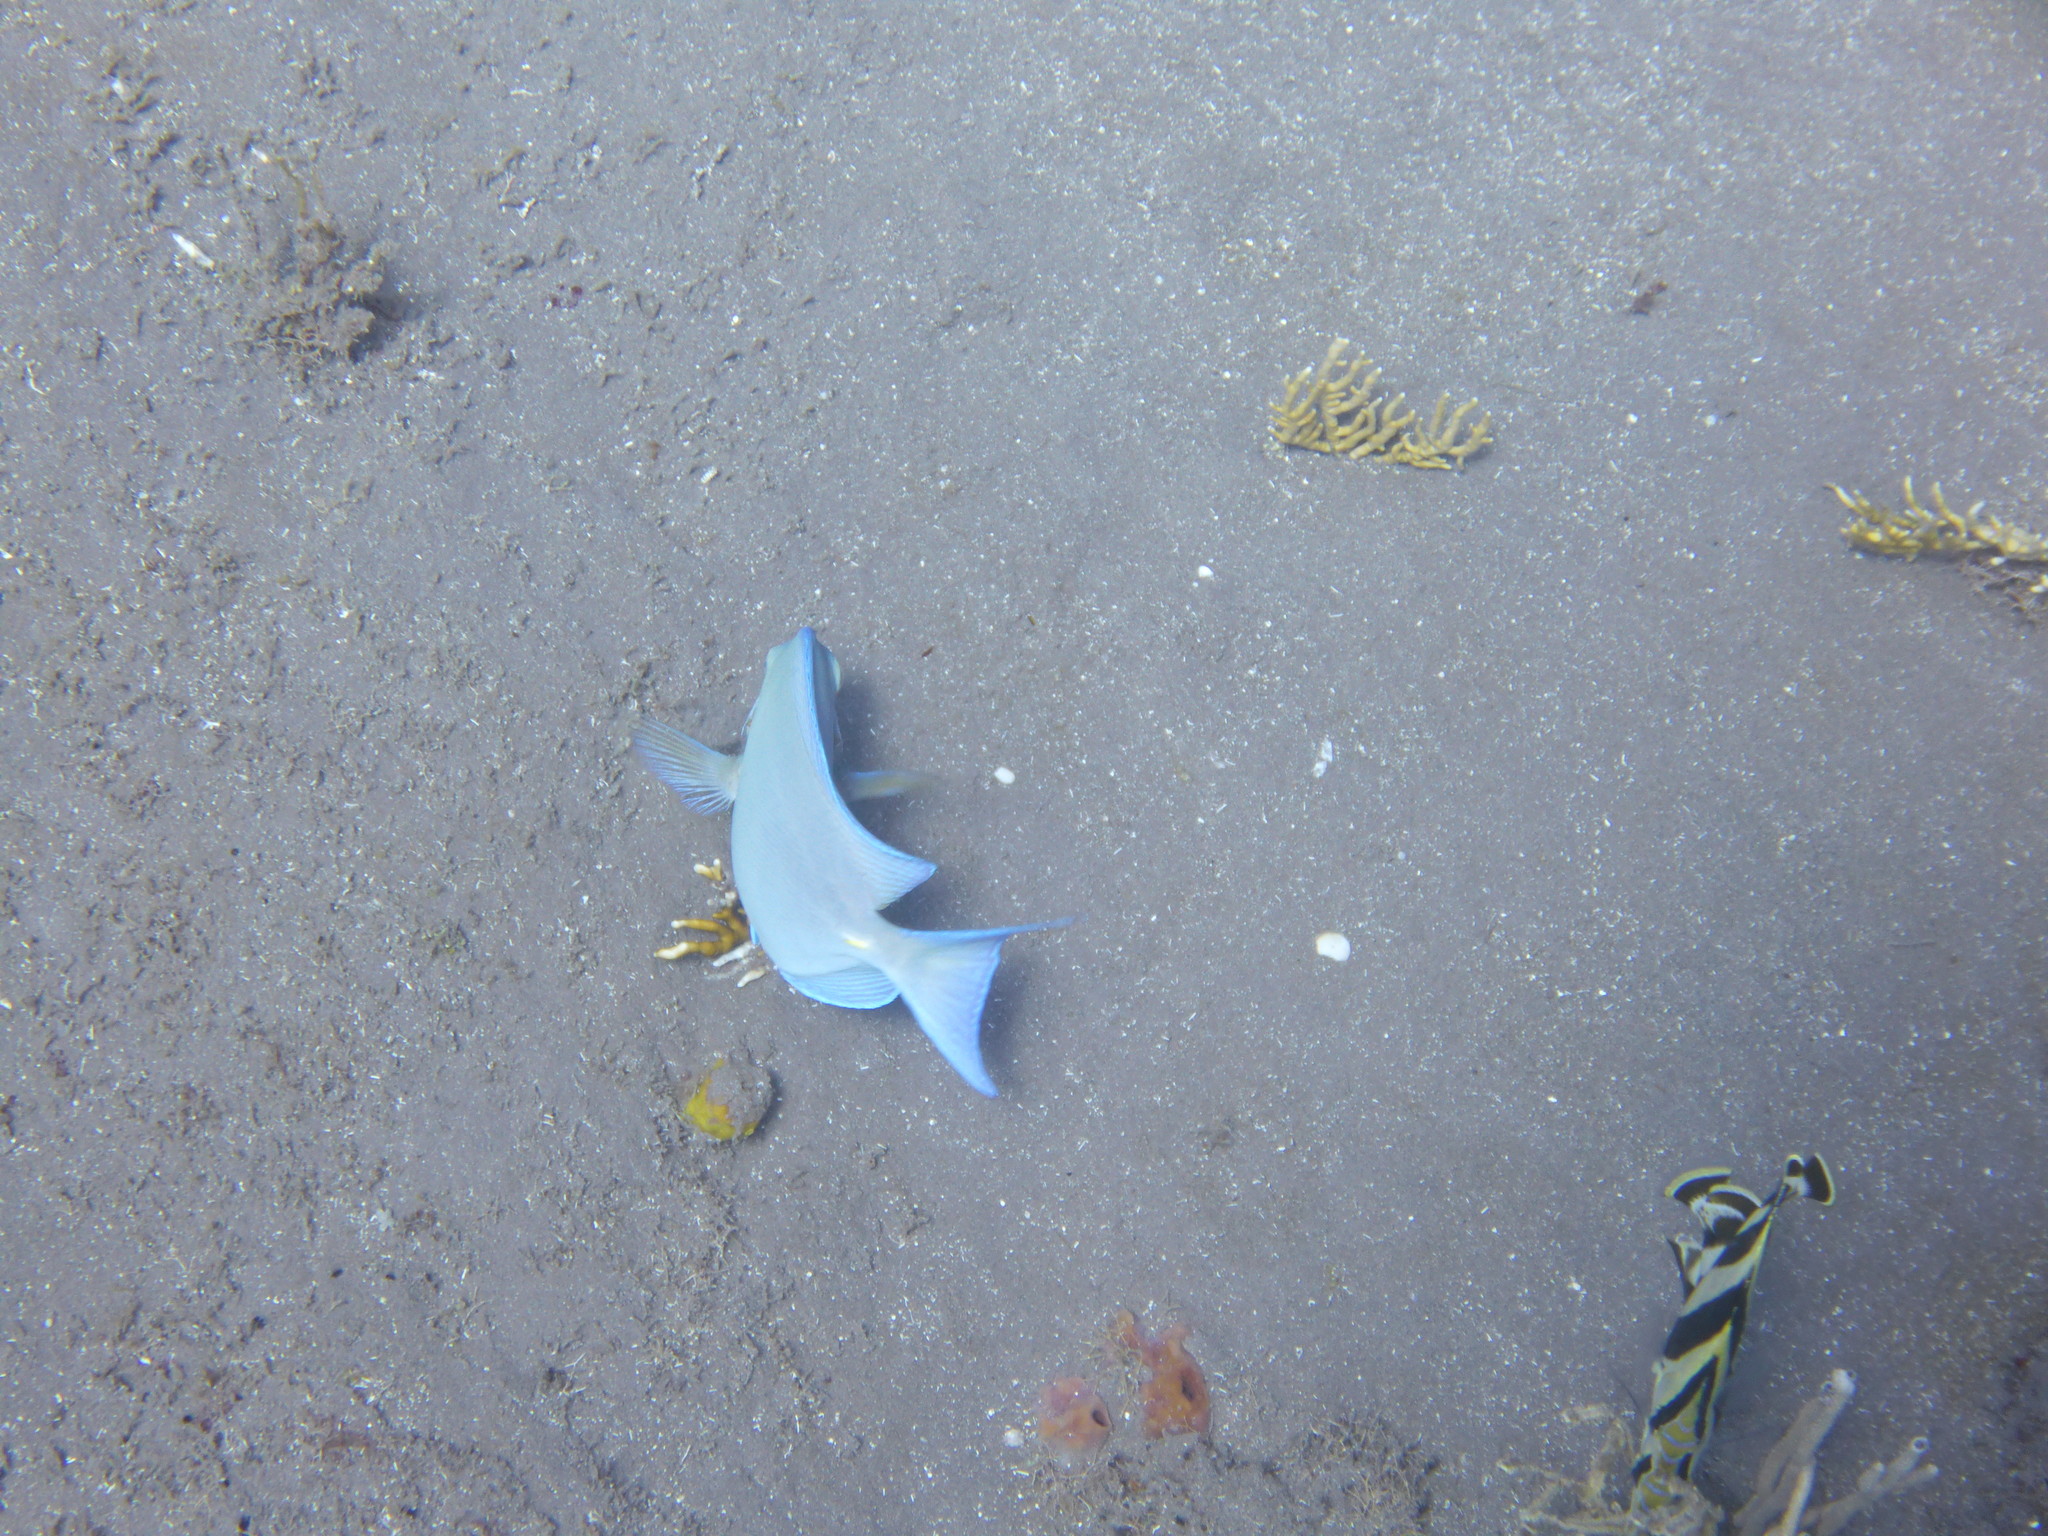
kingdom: Animalia
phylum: Chordata
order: Perciformes
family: Acanthuridae
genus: Acanthurus
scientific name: Acanthurus coeruleus
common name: Blue tang
